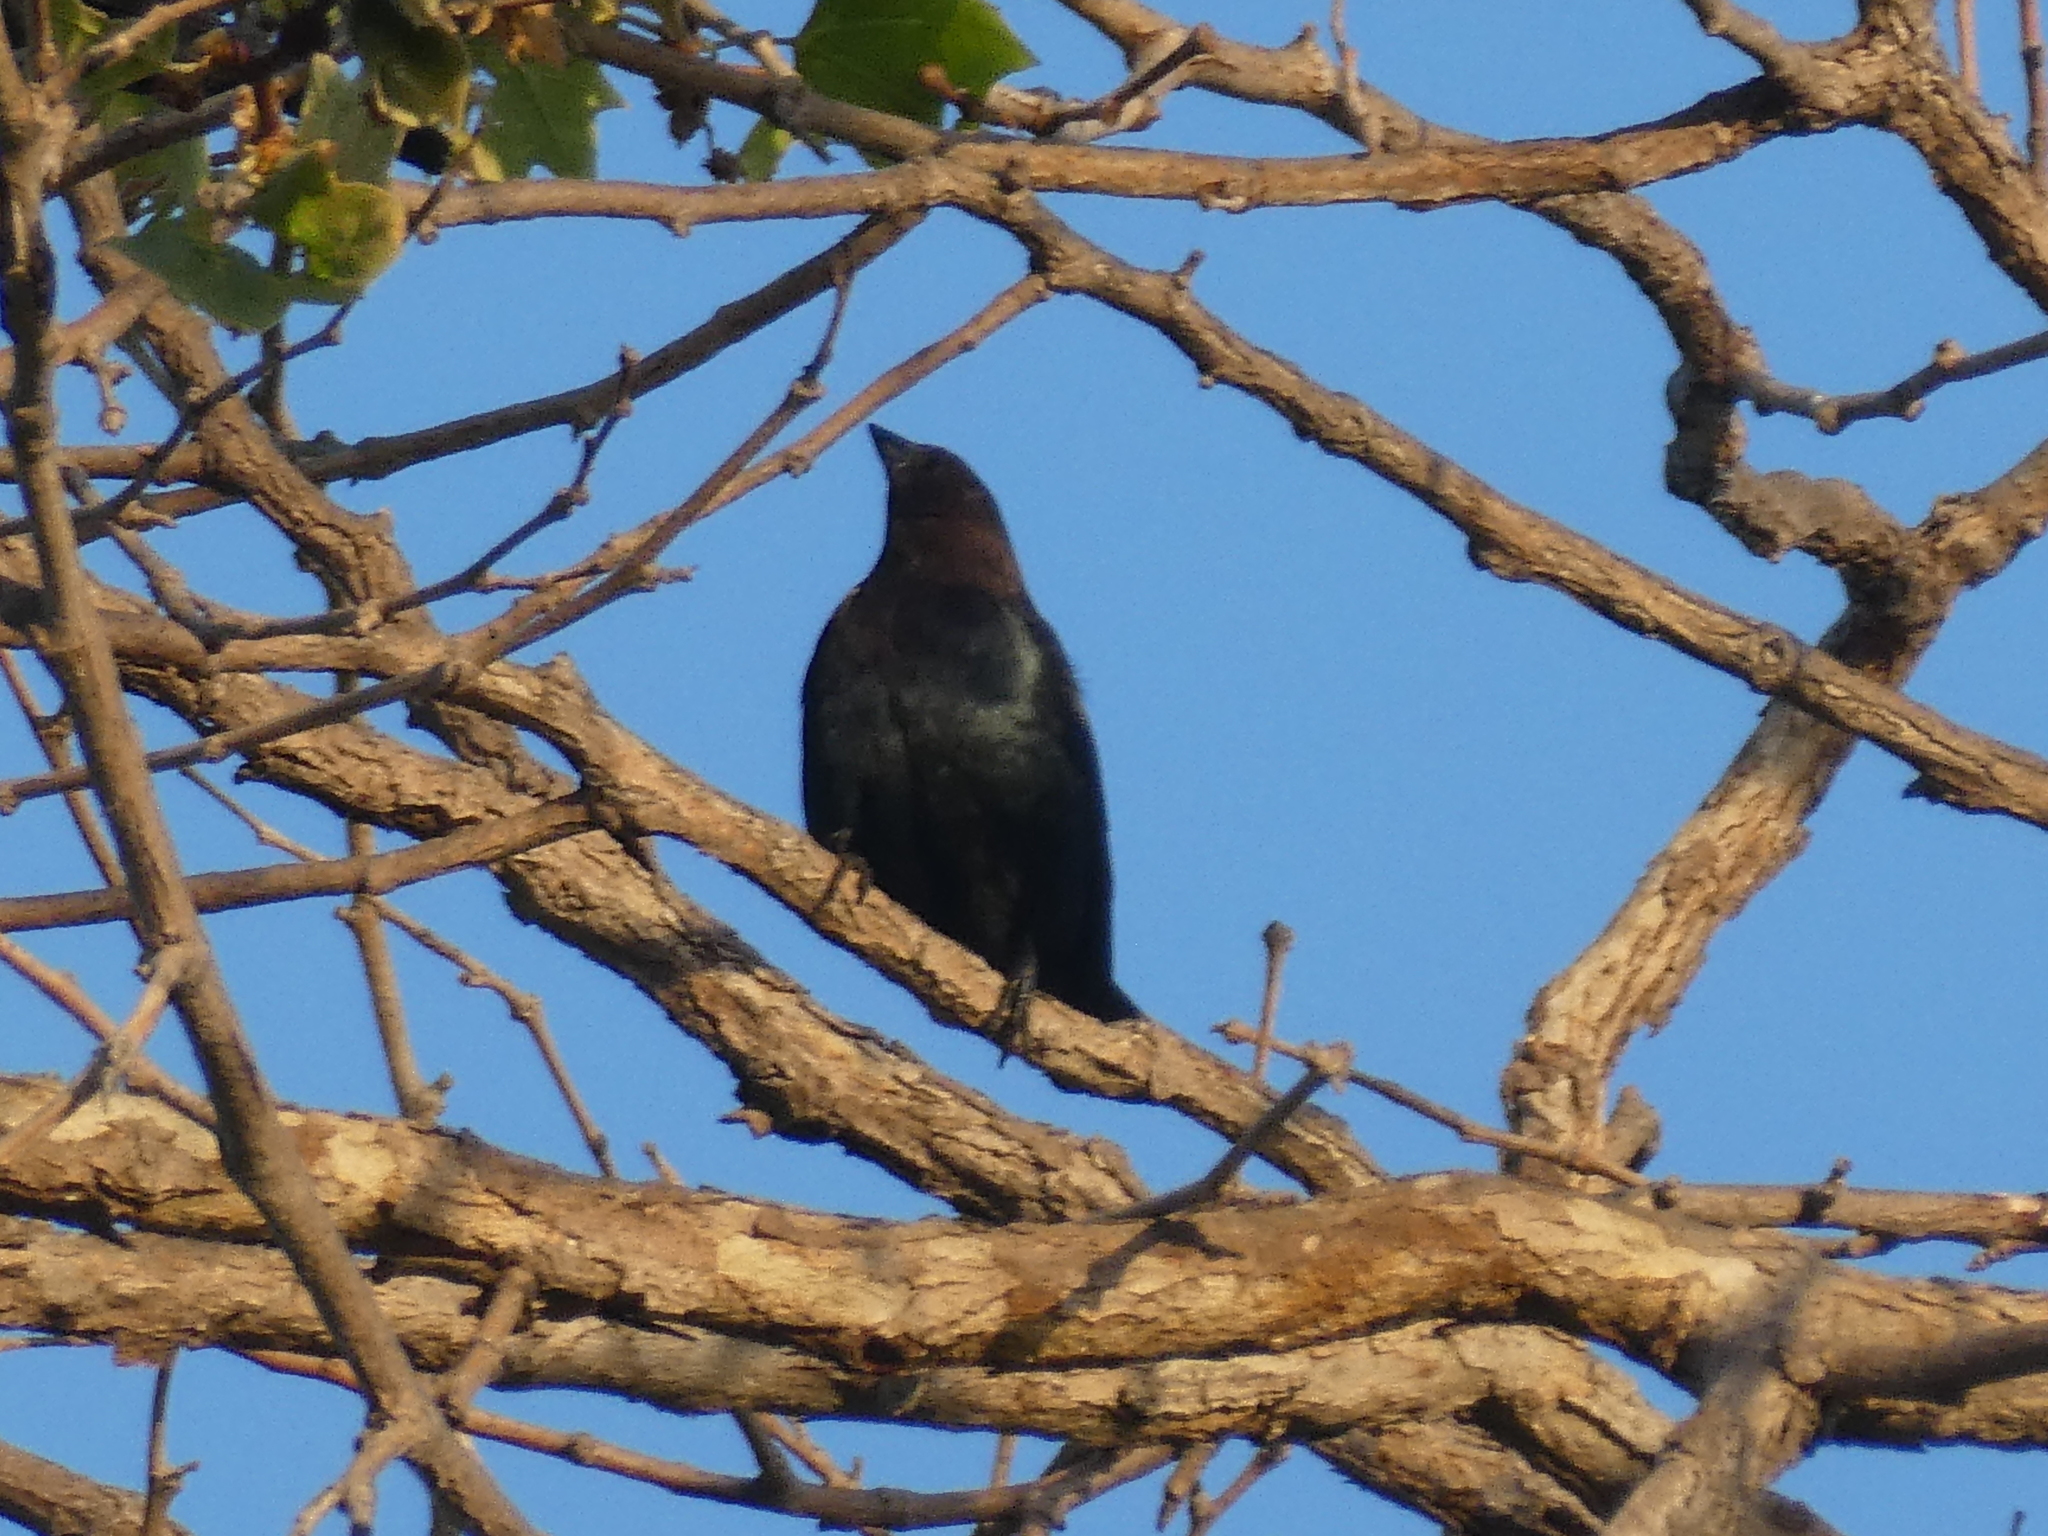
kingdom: Animalia
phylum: Chordata
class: Aves
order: Passeriformes
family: Icteridae
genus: Molothrus
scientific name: Molothrus ater
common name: Brown-headed cowbird
